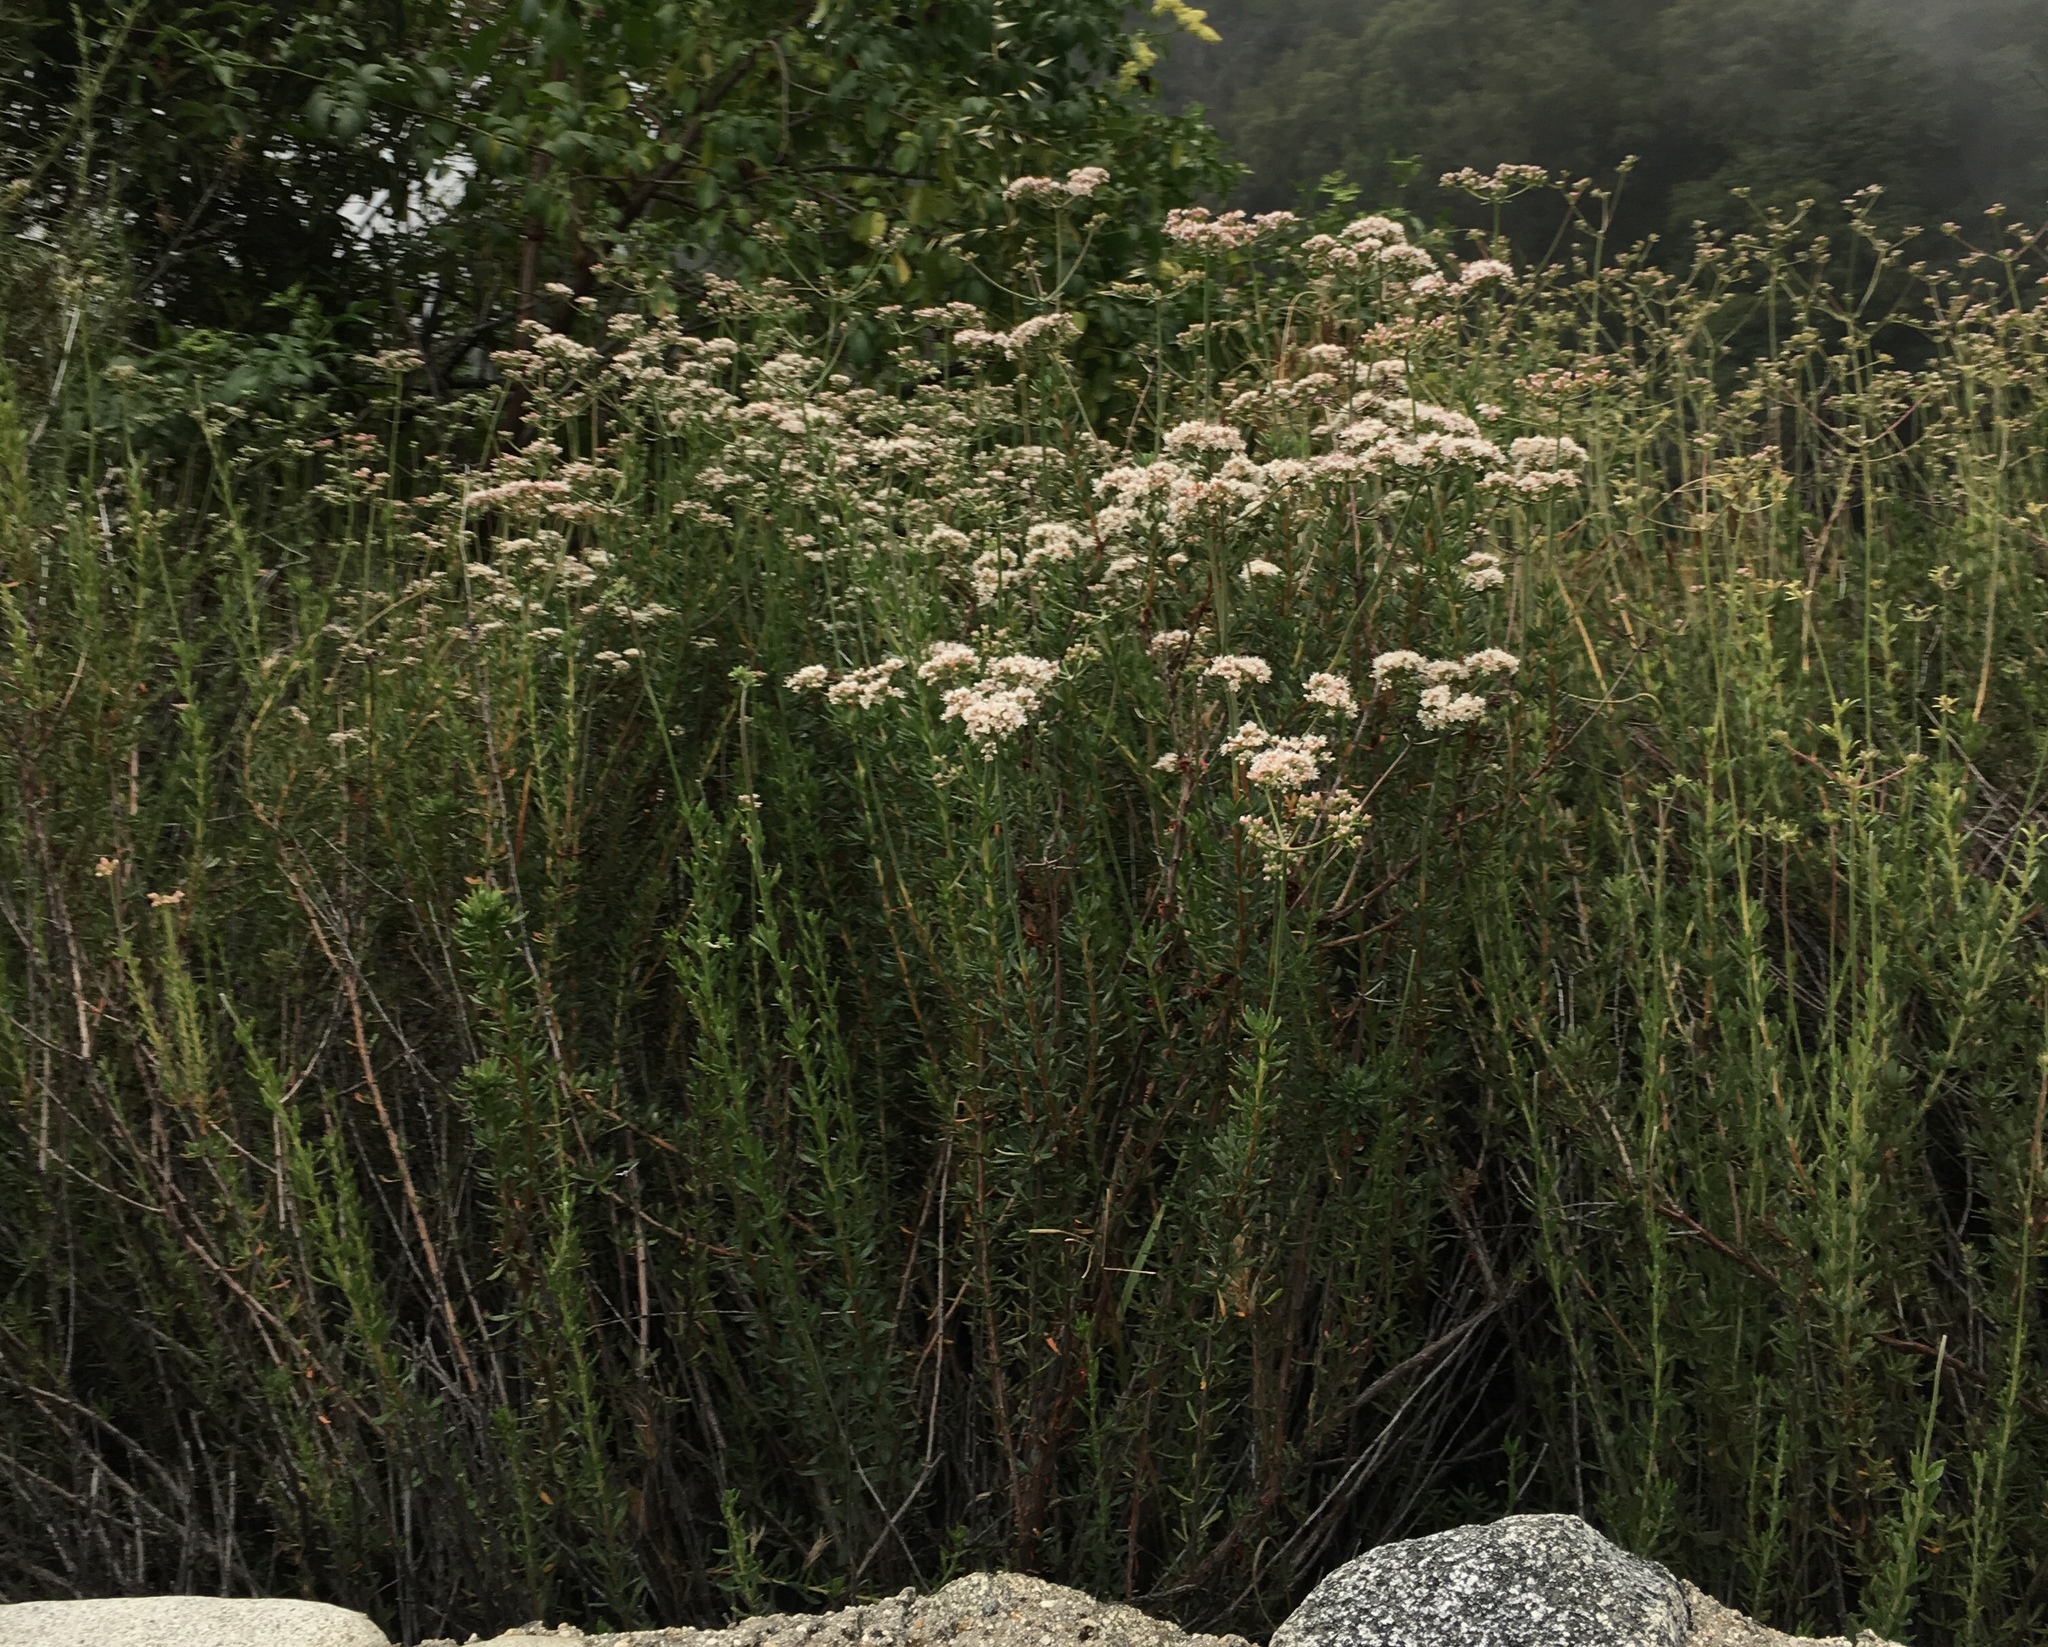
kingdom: Plantae
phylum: Tracheophyta
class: Magnoliopsida
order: Caryophyllales
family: Polygonaceae
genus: Eriogonum
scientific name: Eriogonum fasciculatum
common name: California wild buckwheat
